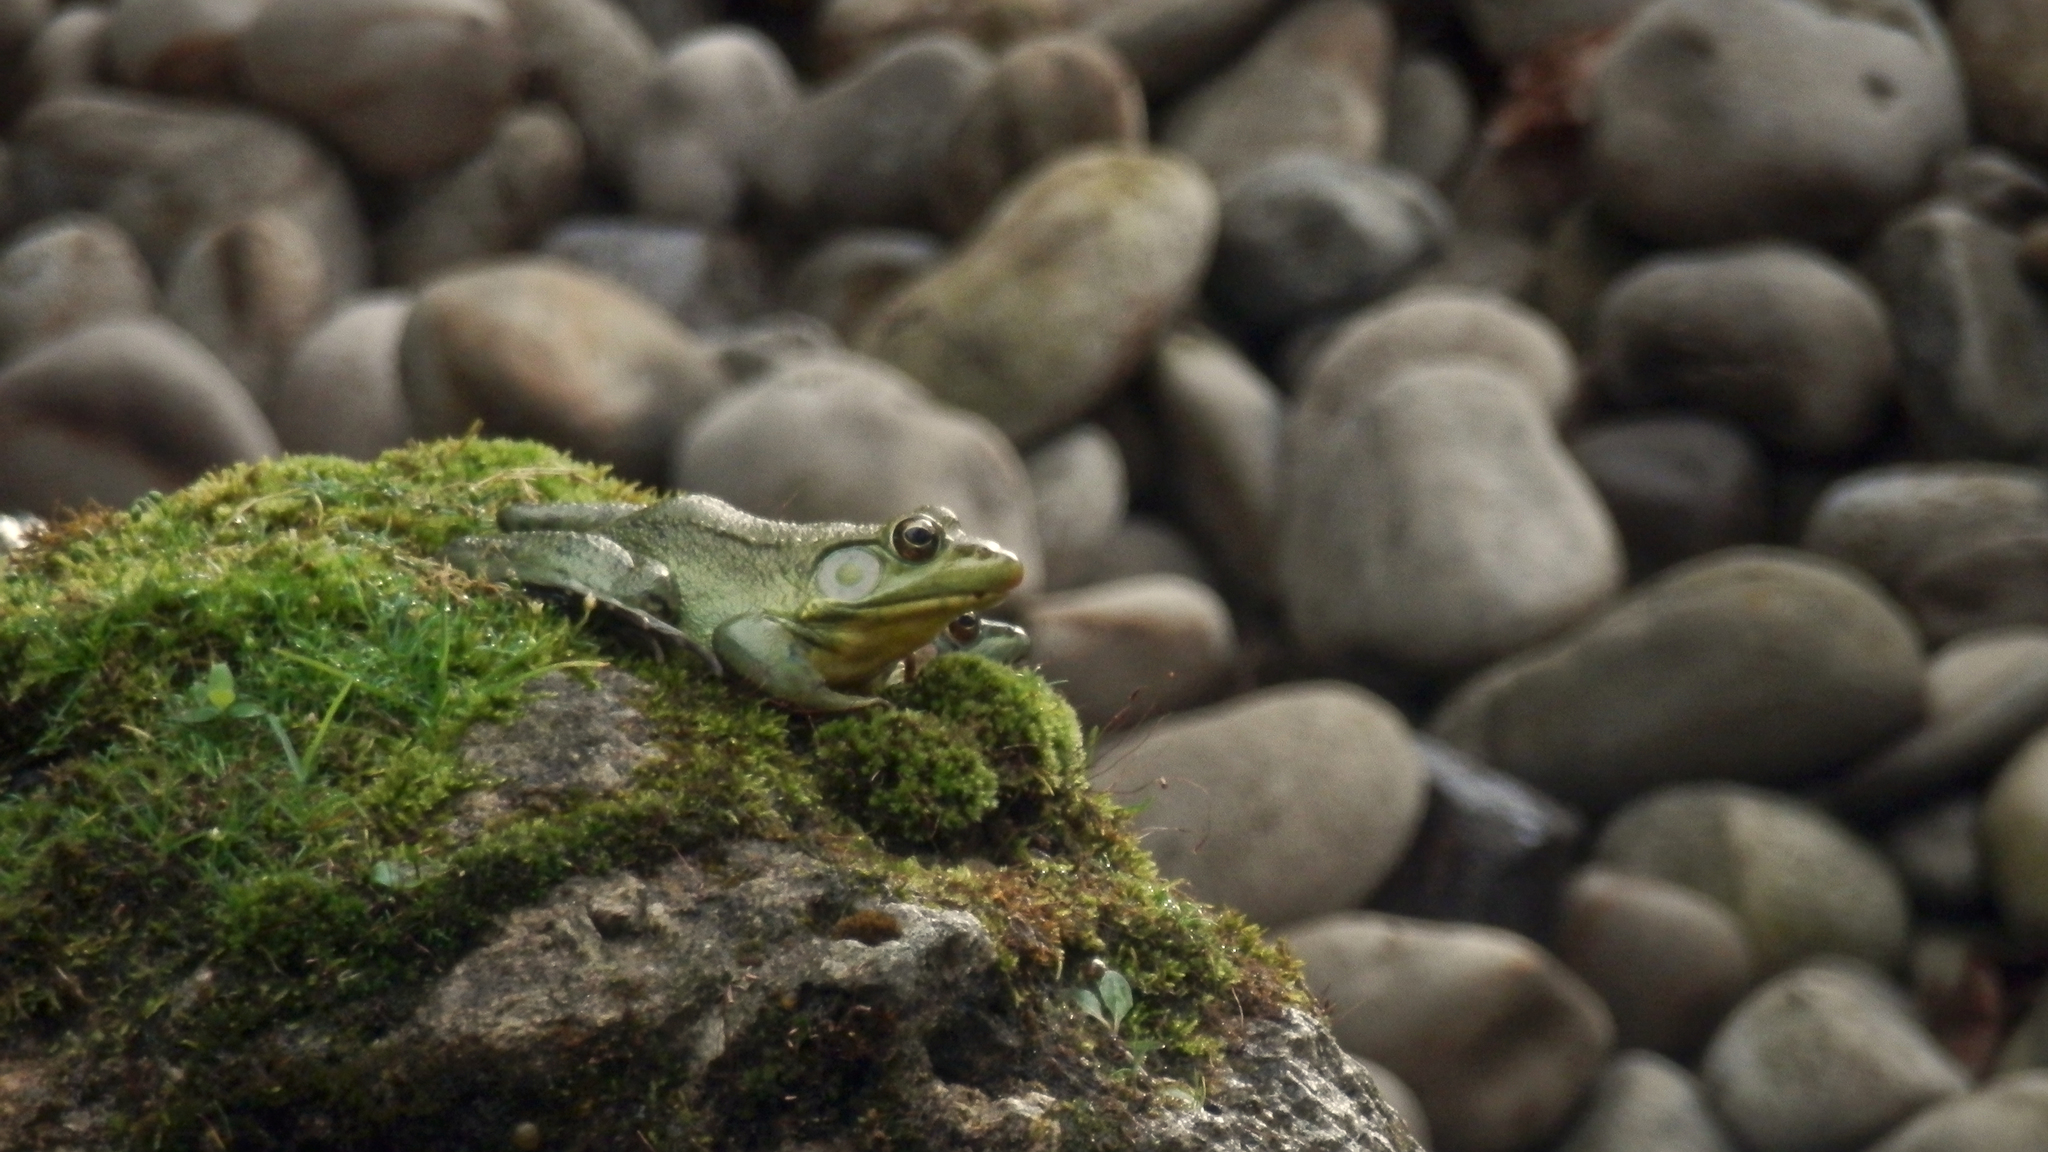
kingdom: Animalia
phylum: Chordata
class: Amphibia
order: Anura
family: Ranidae
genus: Lithobates
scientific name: Lithobates clamitans
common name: Green frog
